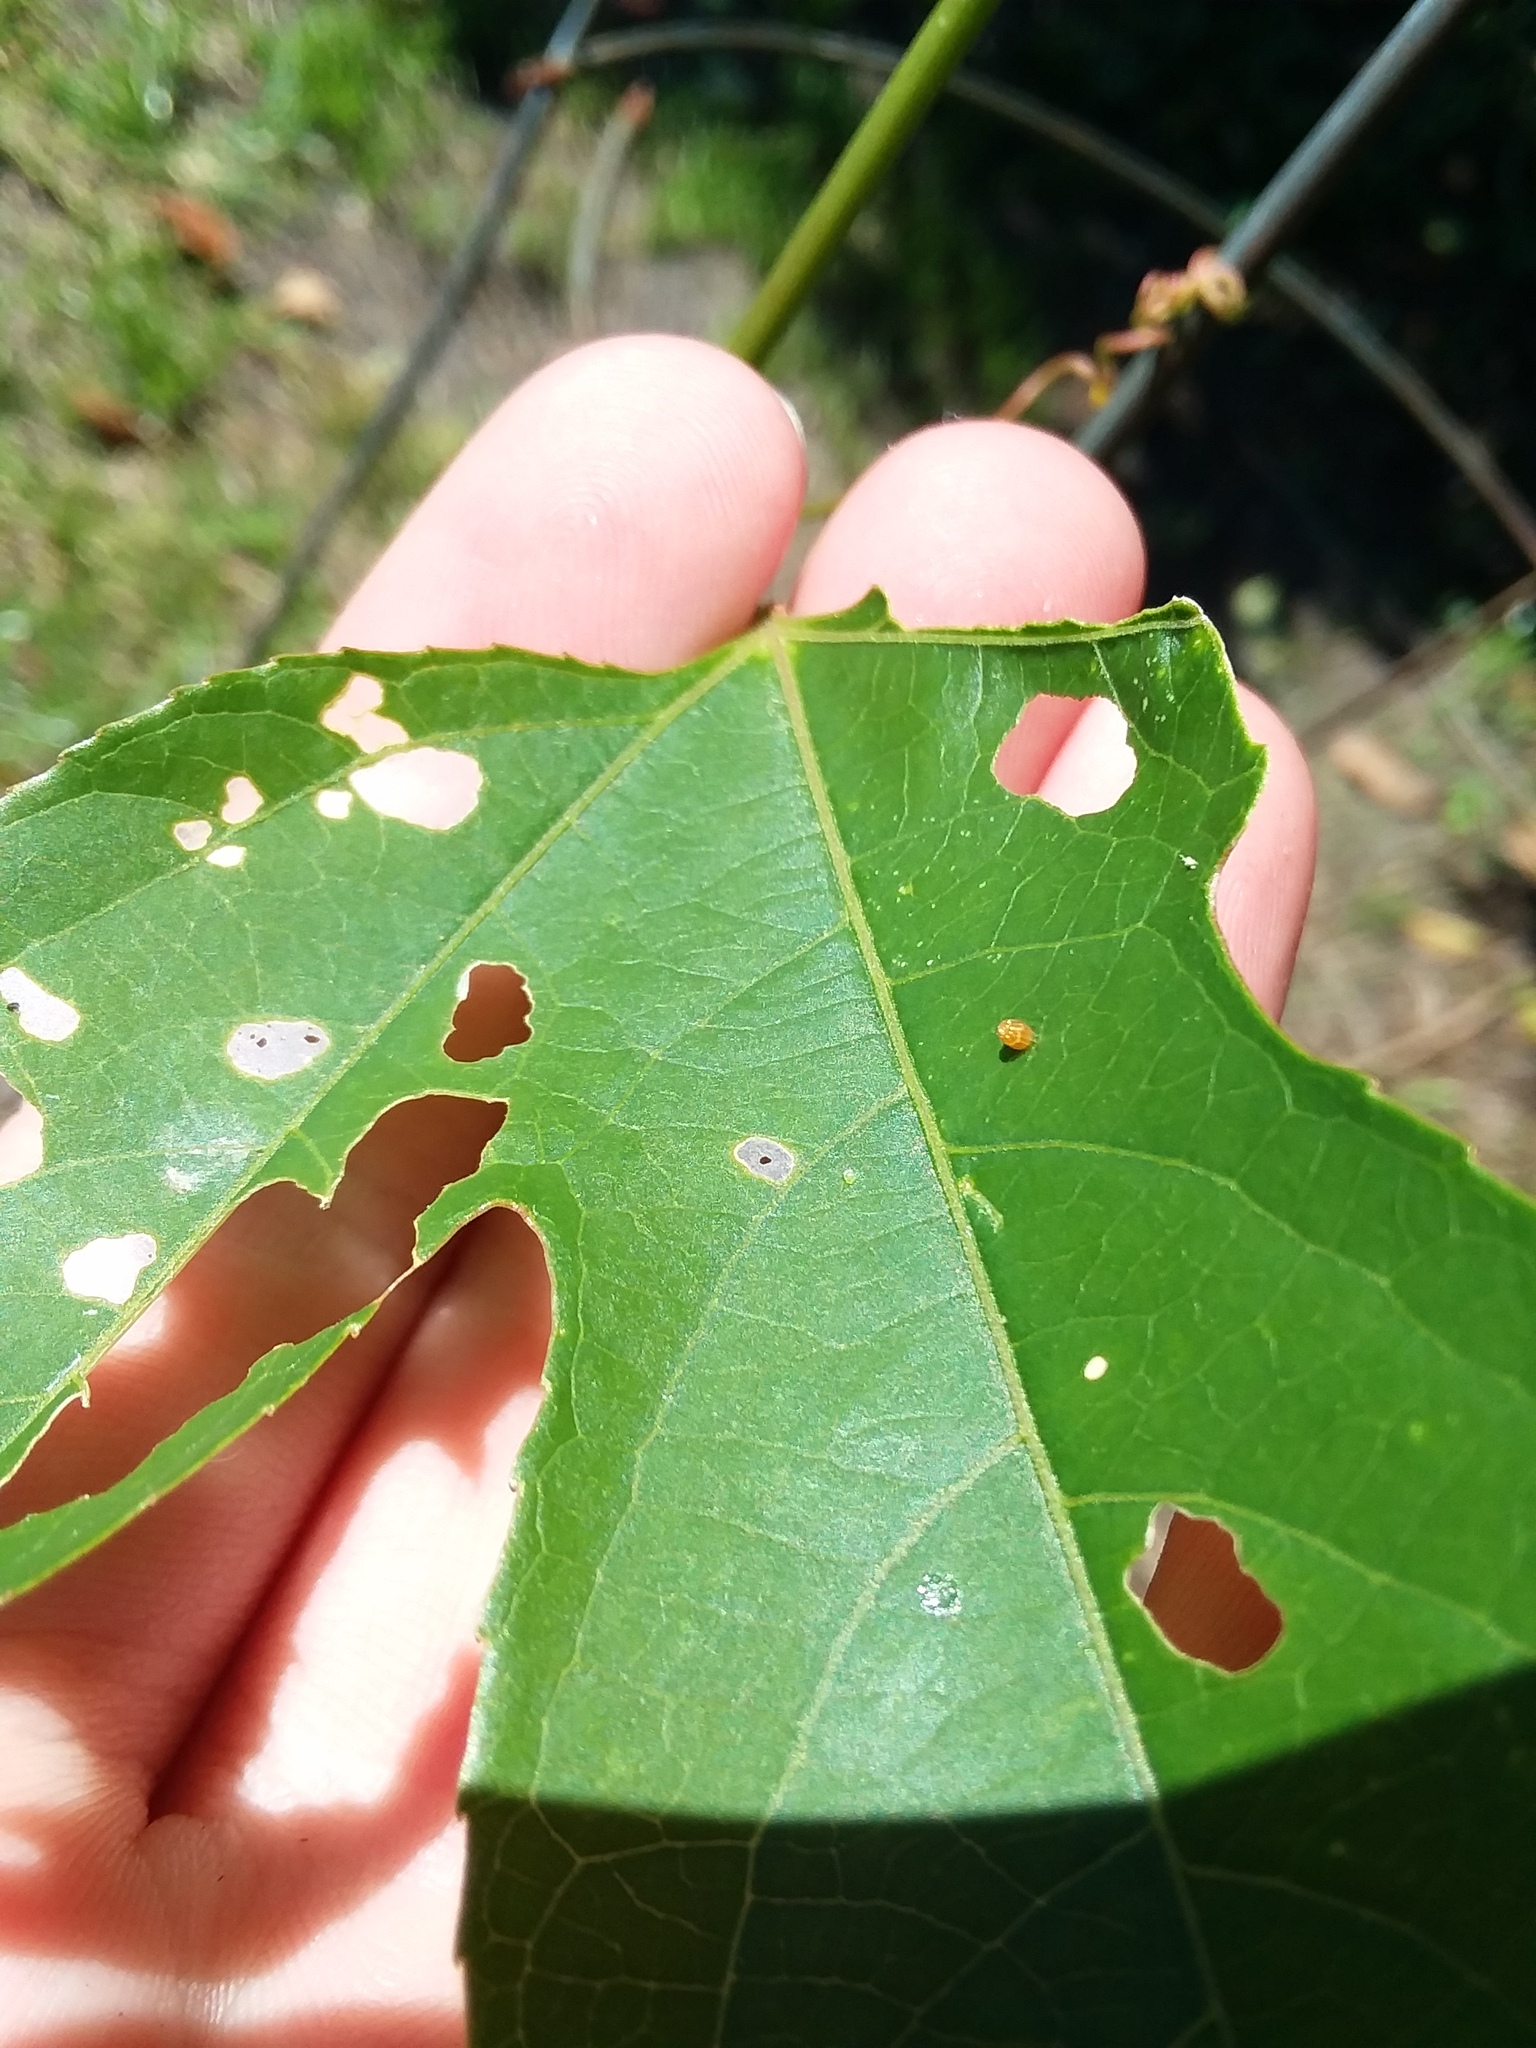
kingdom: Animalia
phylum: Arthropoda
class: Insecta
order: Lepidoptera
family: Nymphalidae
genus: Dione
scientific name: Dione vanillae
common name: Gulf fritillary
